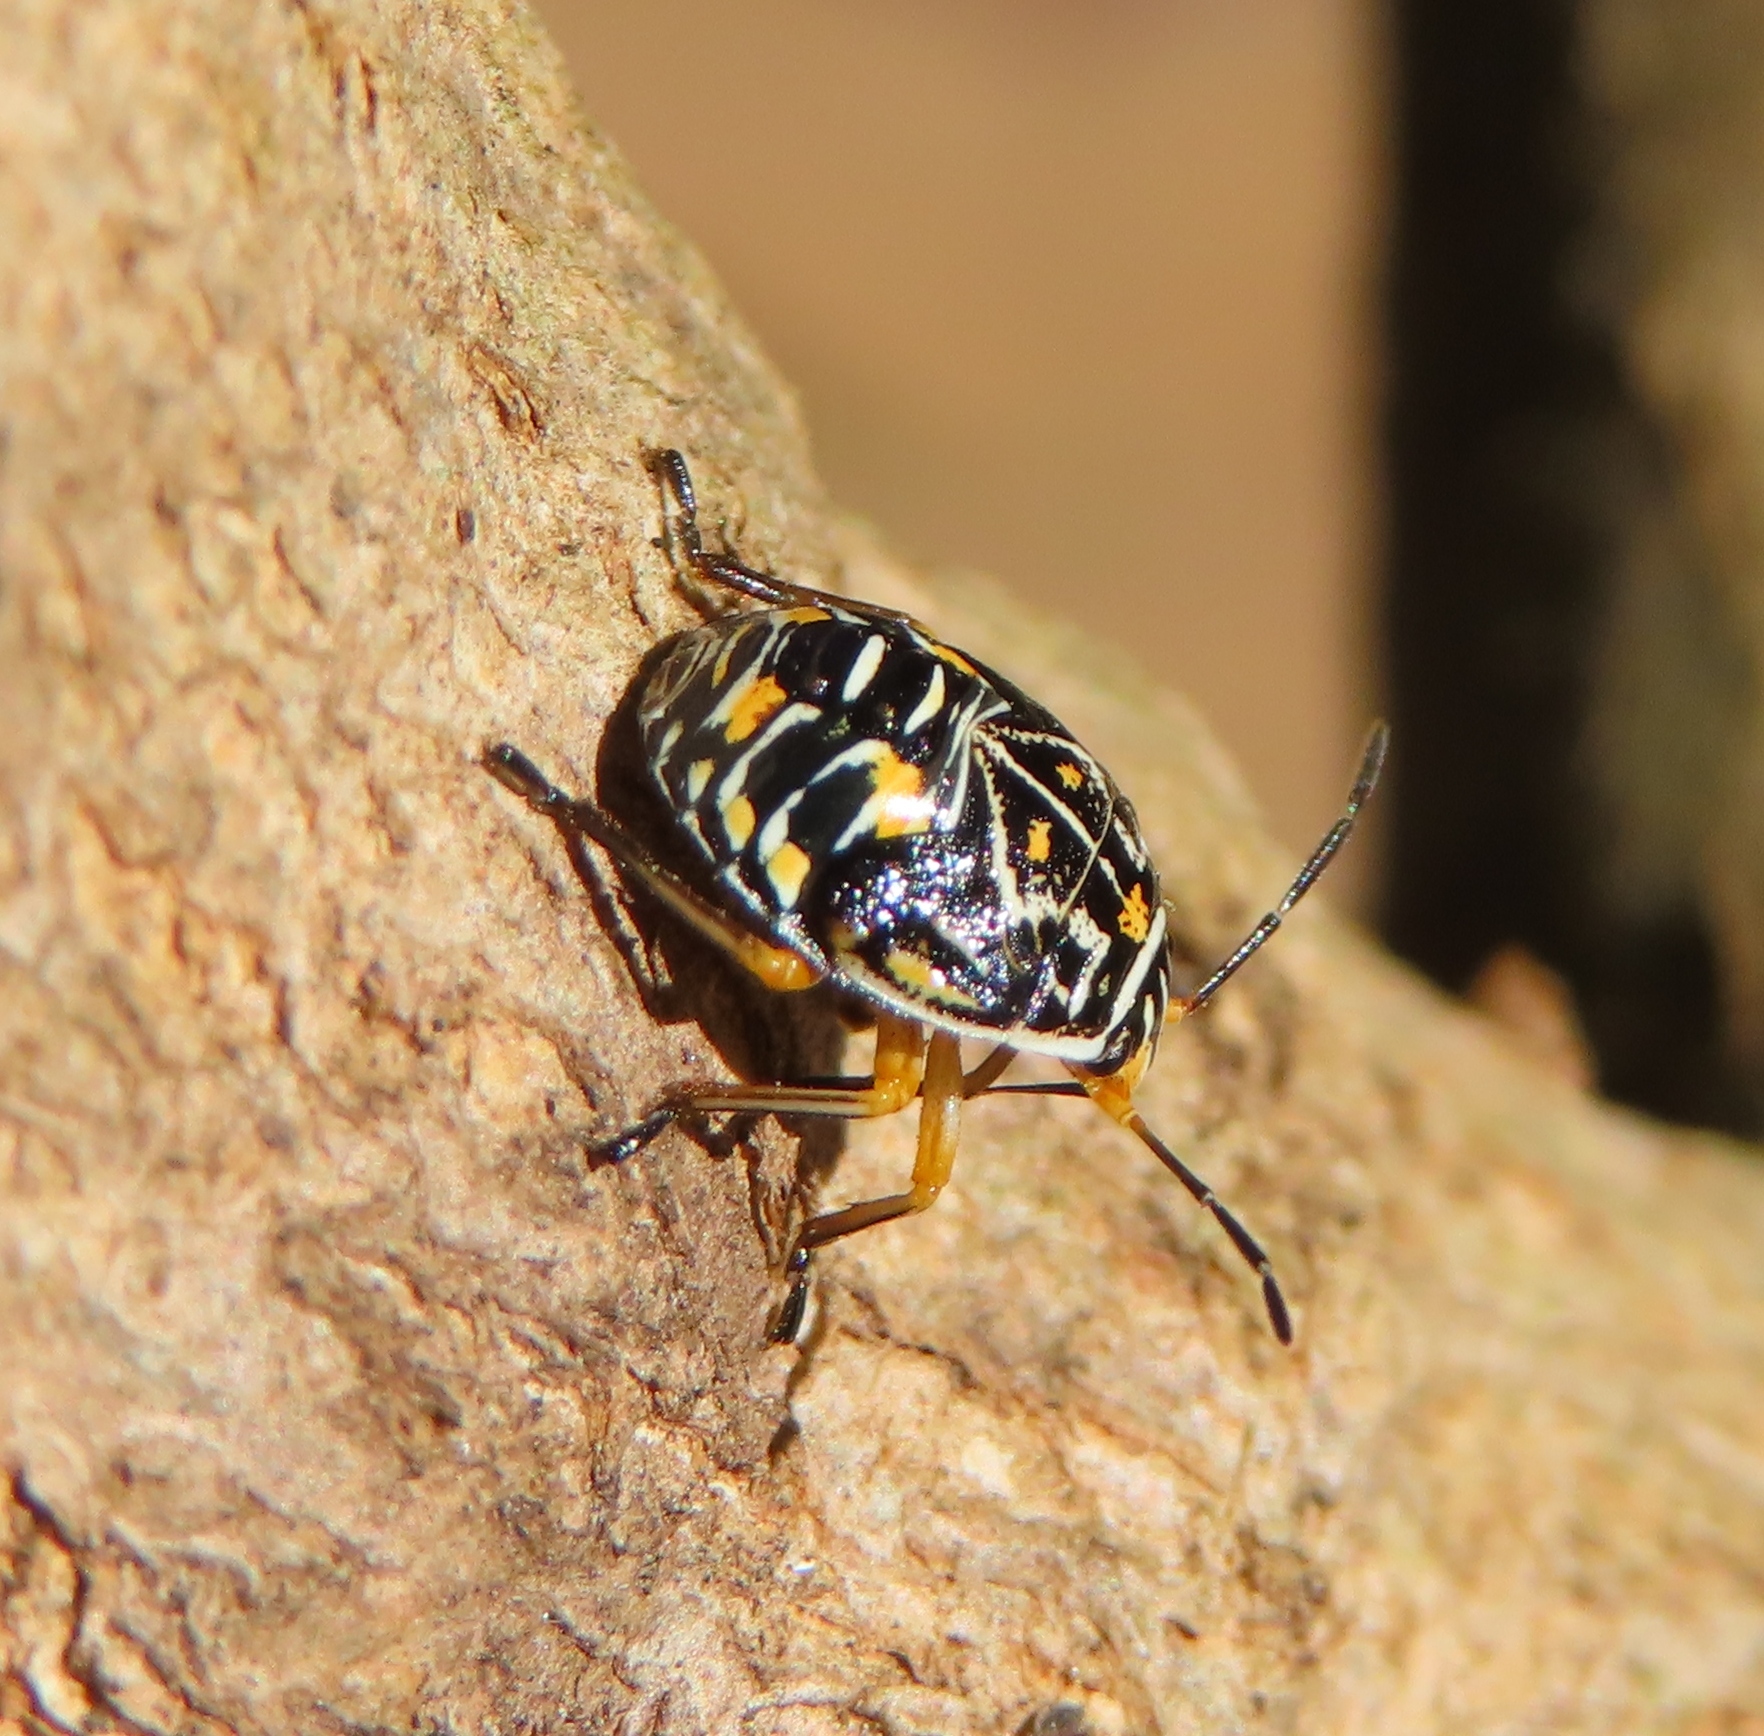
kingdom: Animalia
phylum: Arthropoda
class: Insecta
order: Hemiptera
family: Pentatomidae
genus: Antestiopsis
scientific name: Antestiopsis thunbergii
